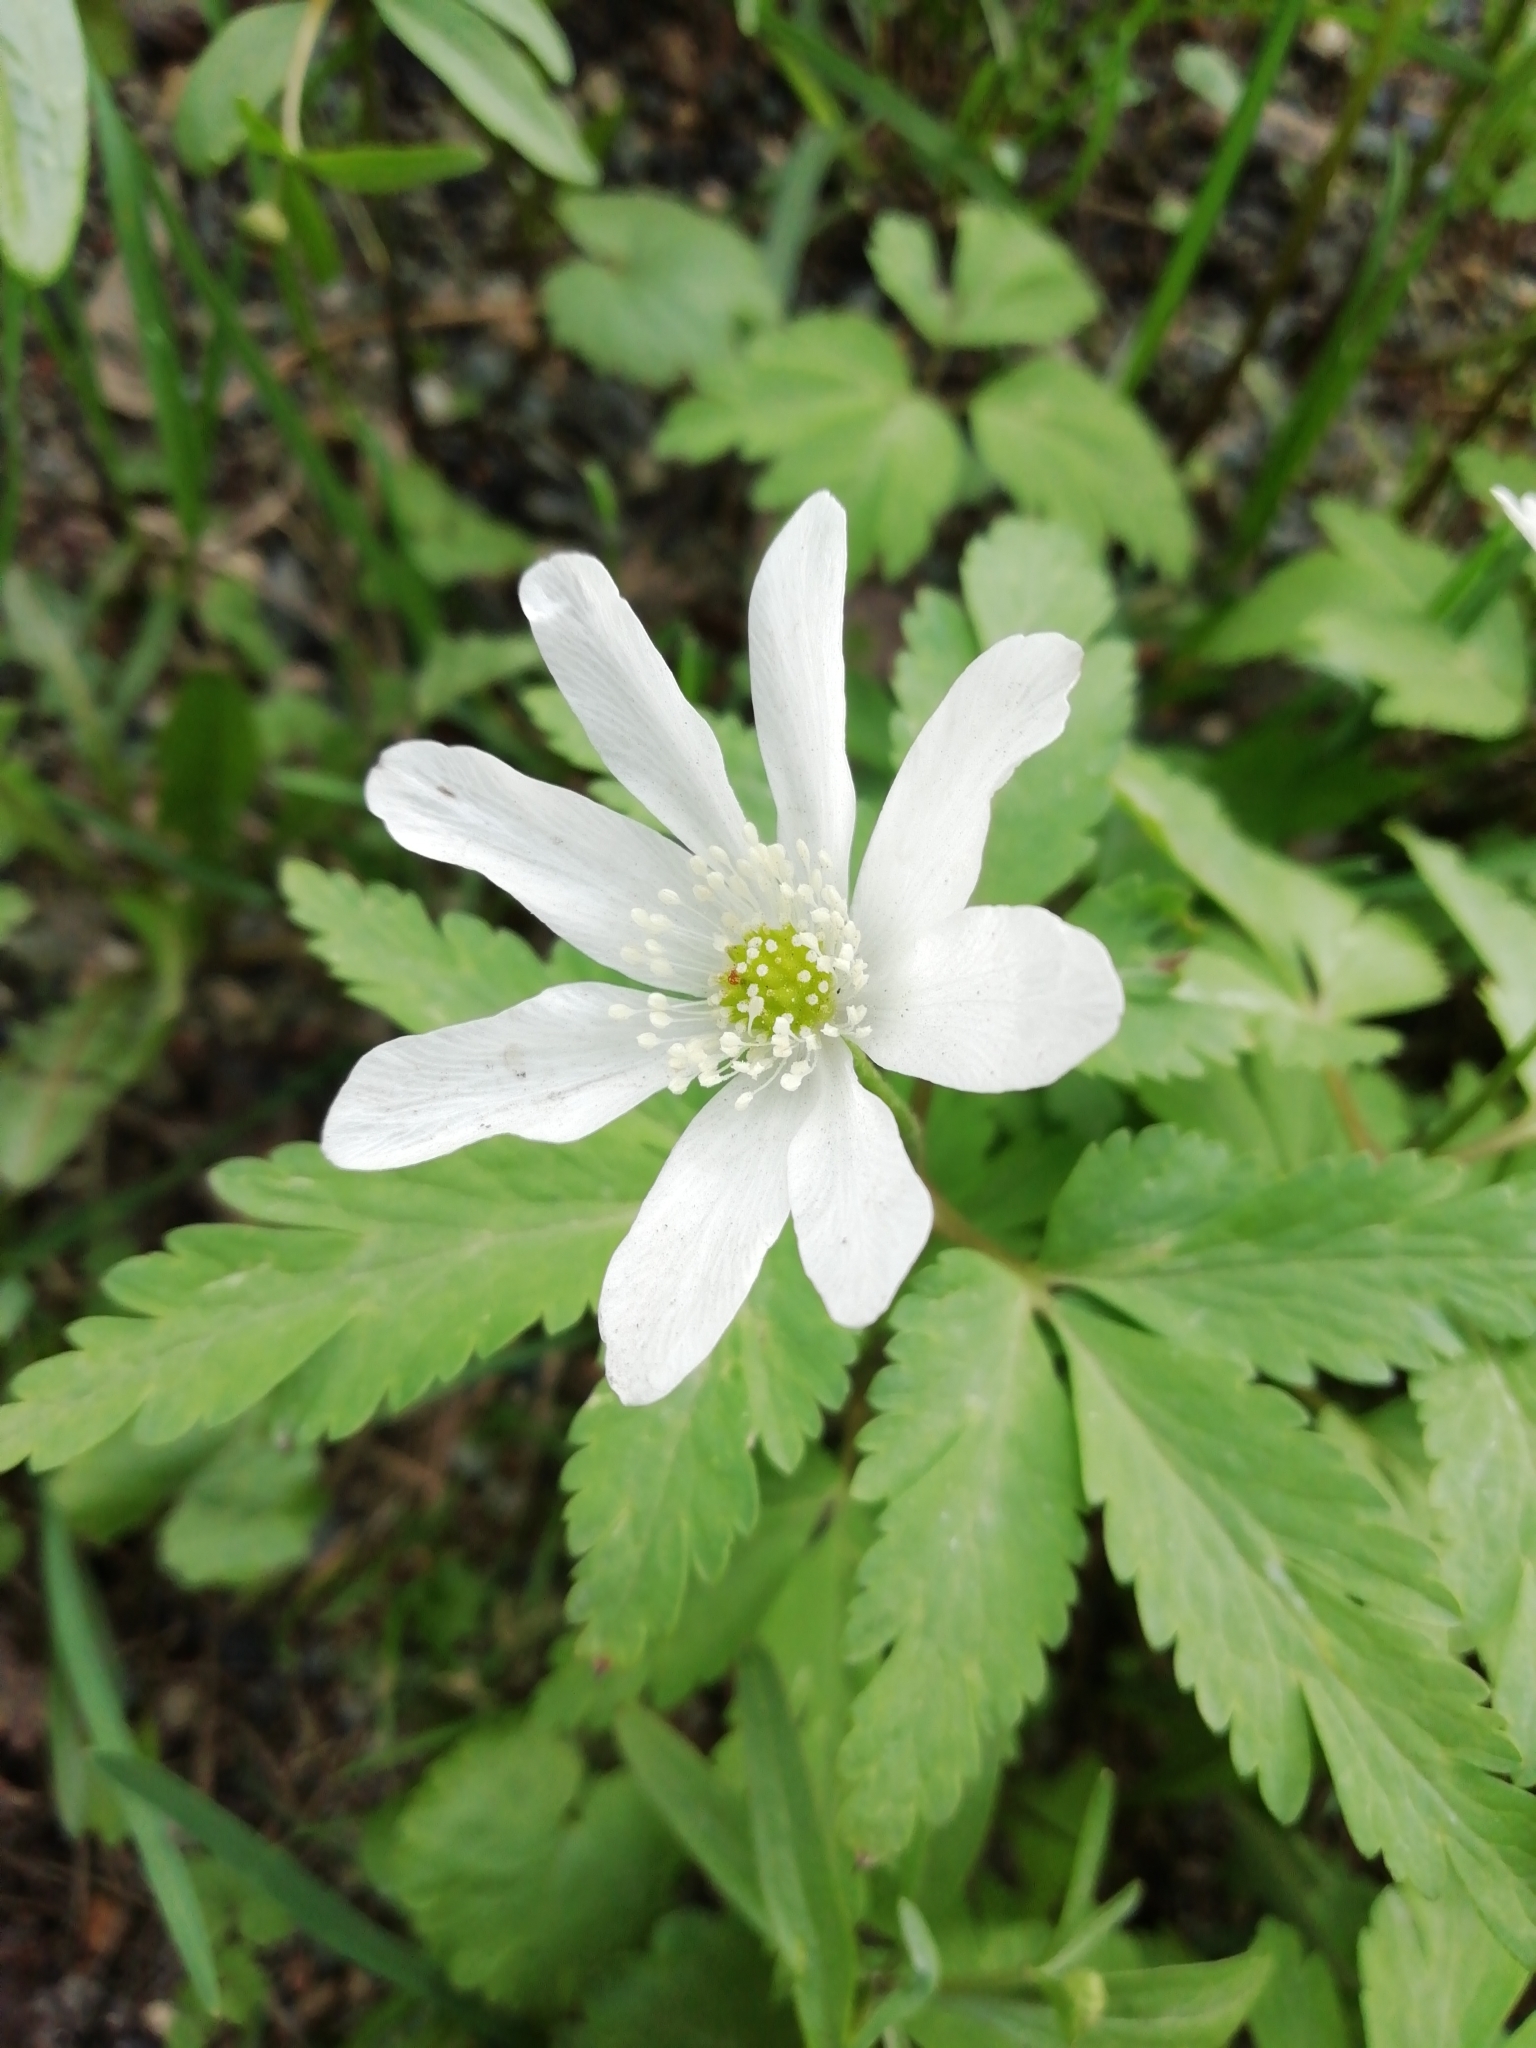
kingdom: Plantae
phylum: Tracheophyta
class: Magnoliopsida
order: Ranunculales
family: Ranunculaceae
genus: Anemone
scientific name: Anemone altaica
